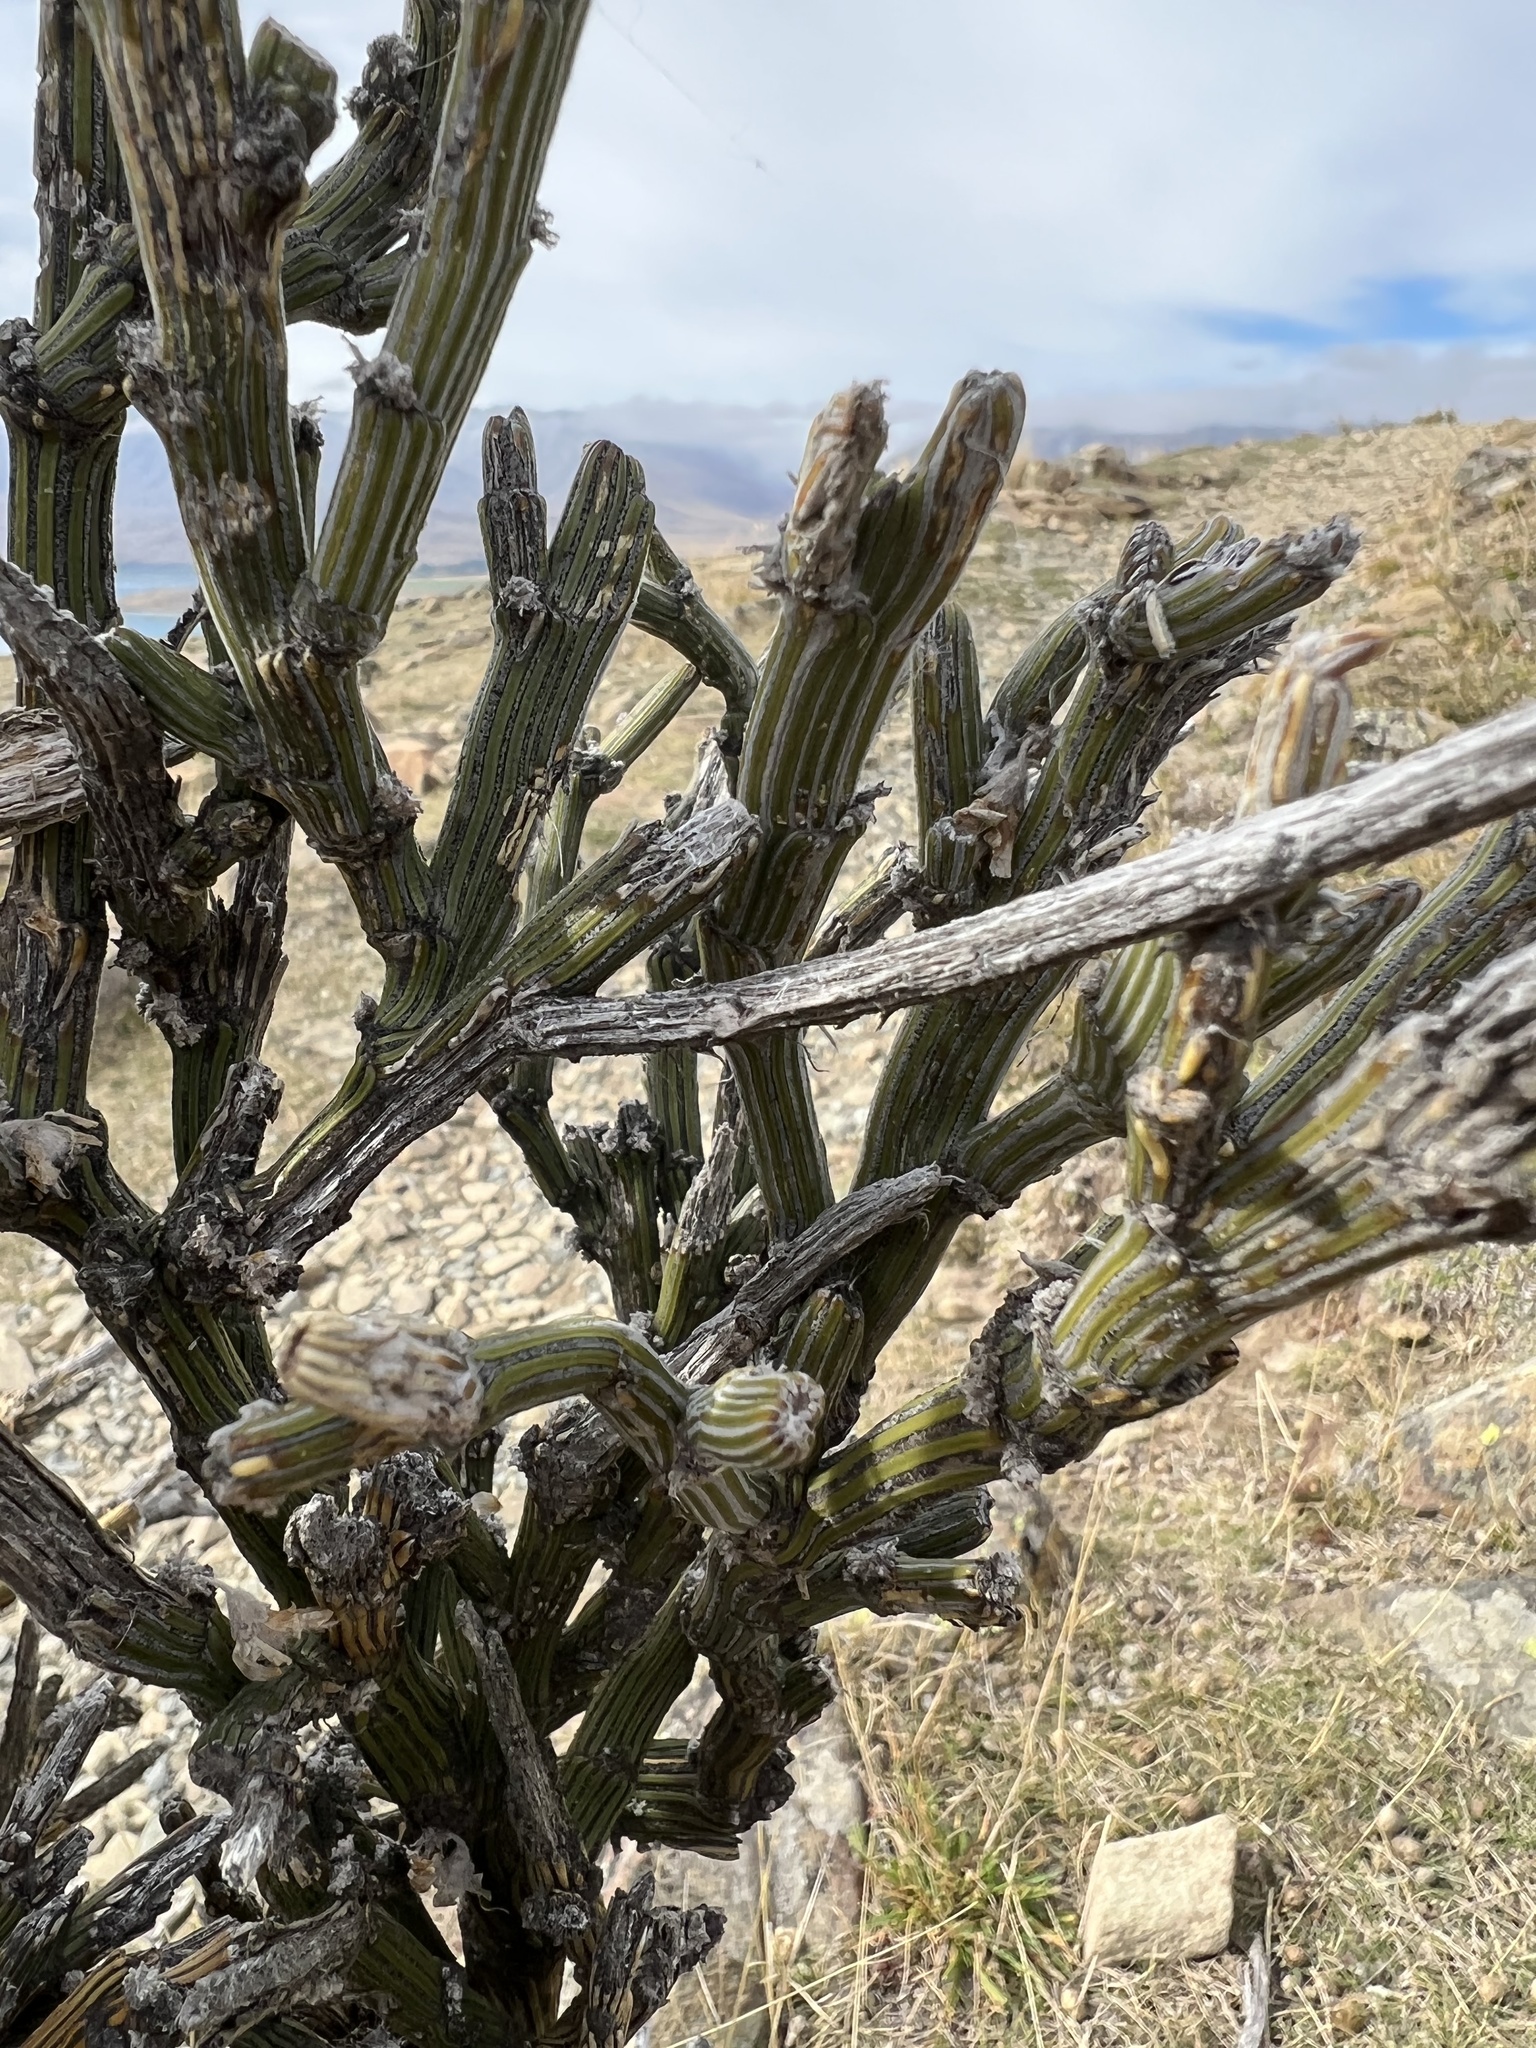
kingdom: Plantae
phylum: Tracheophyta
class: Magnoliopsida
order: Fabales
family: Fabaceae
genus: Carmichaelia
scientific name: Carmichaelia crassicaulis
